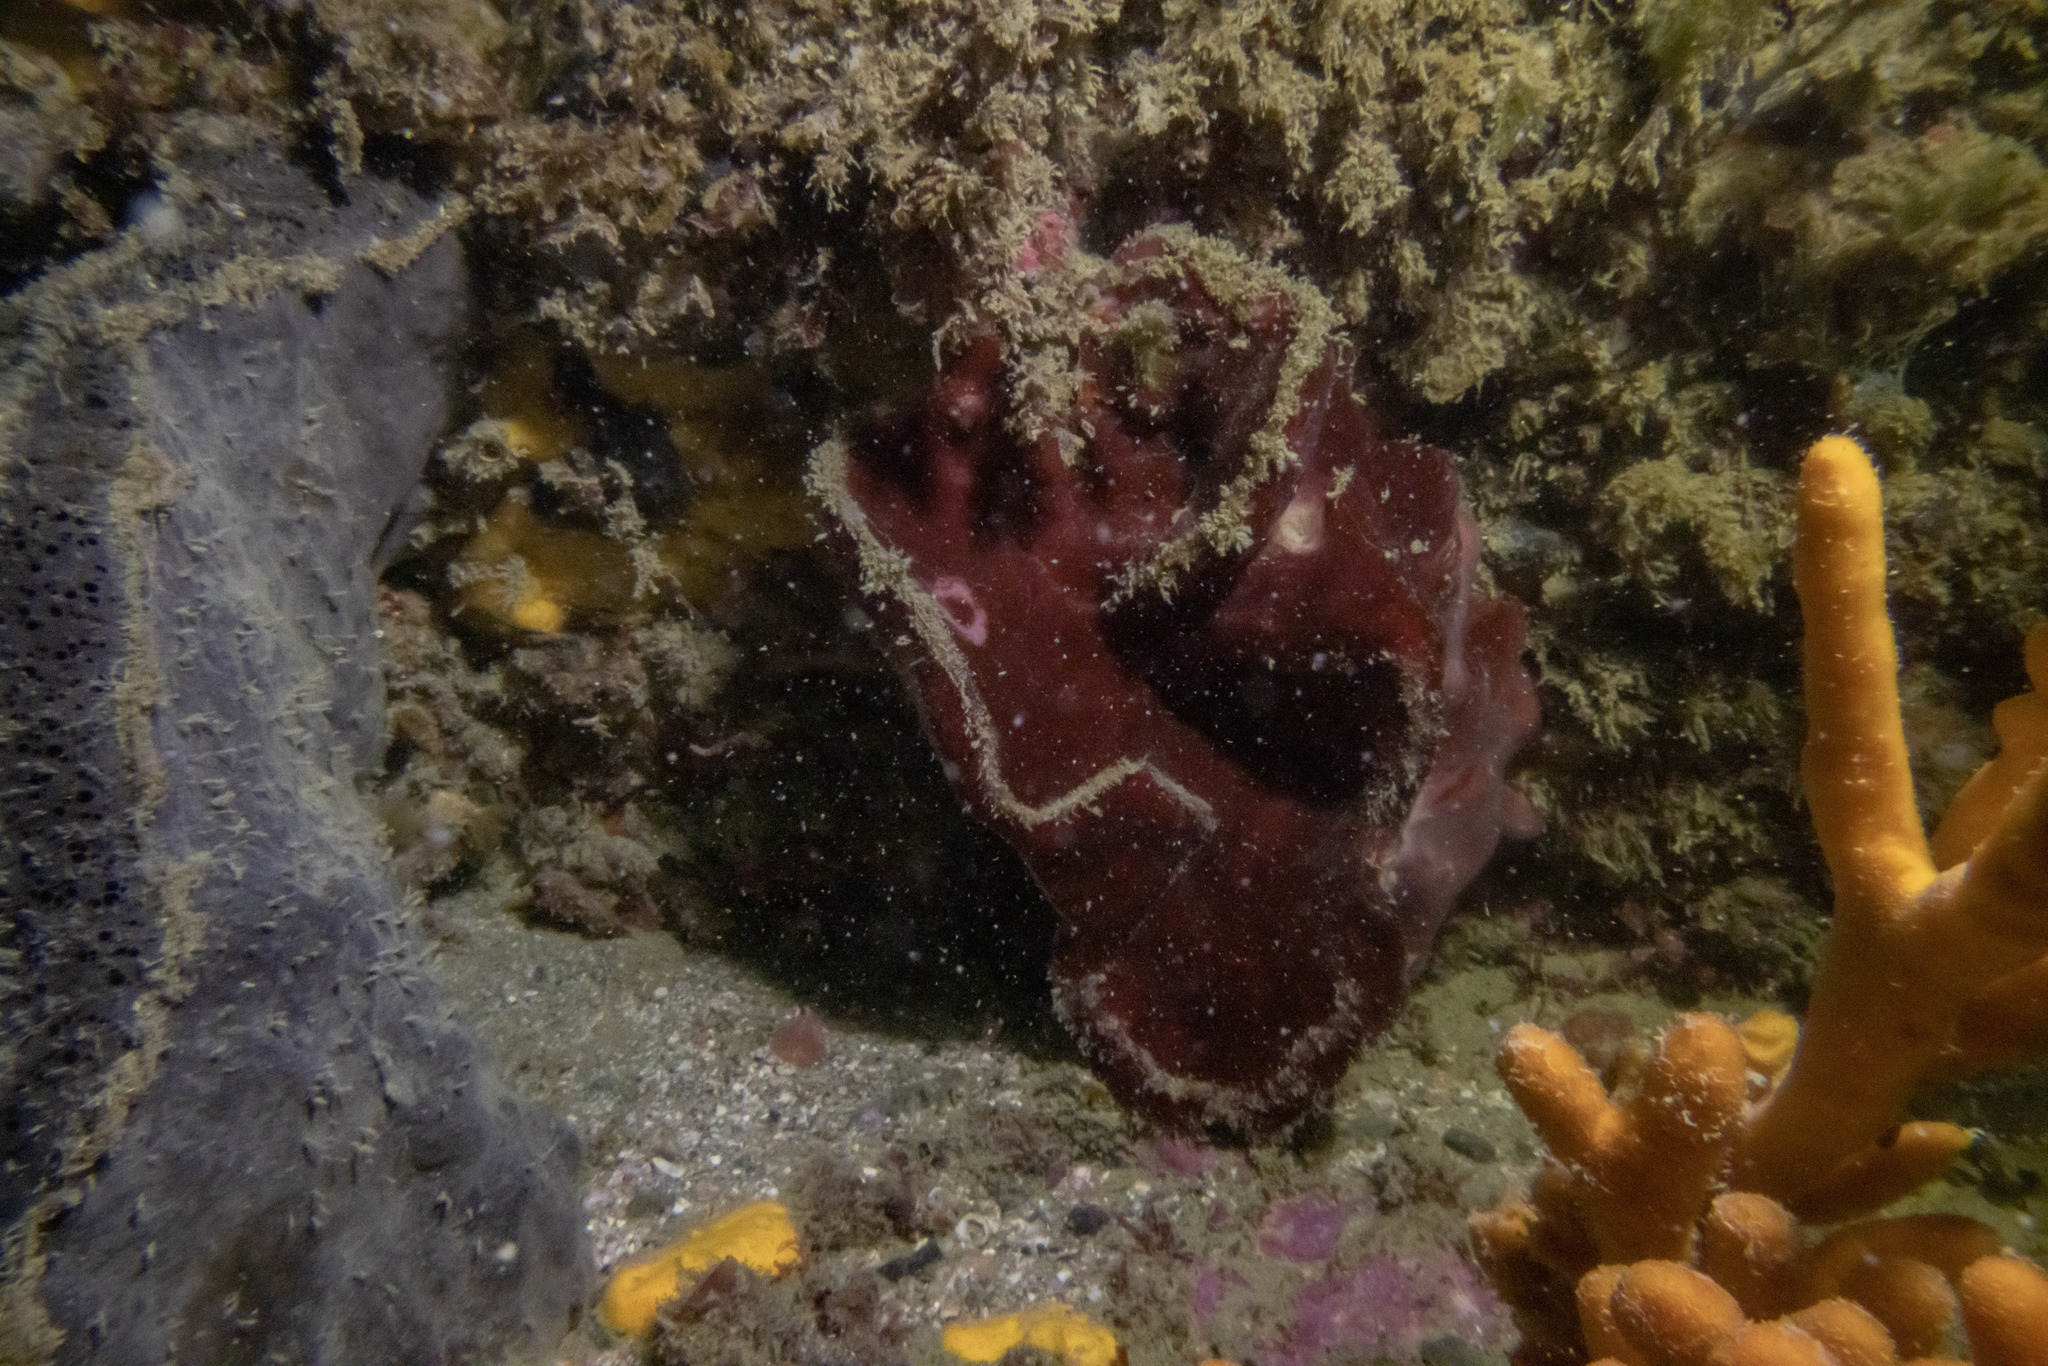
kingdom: Animalia
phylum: Porifera
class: Demospongiae
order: Haplosclerida
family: Petrosiidae
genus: Petrosia
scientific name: Petrosia hebes
